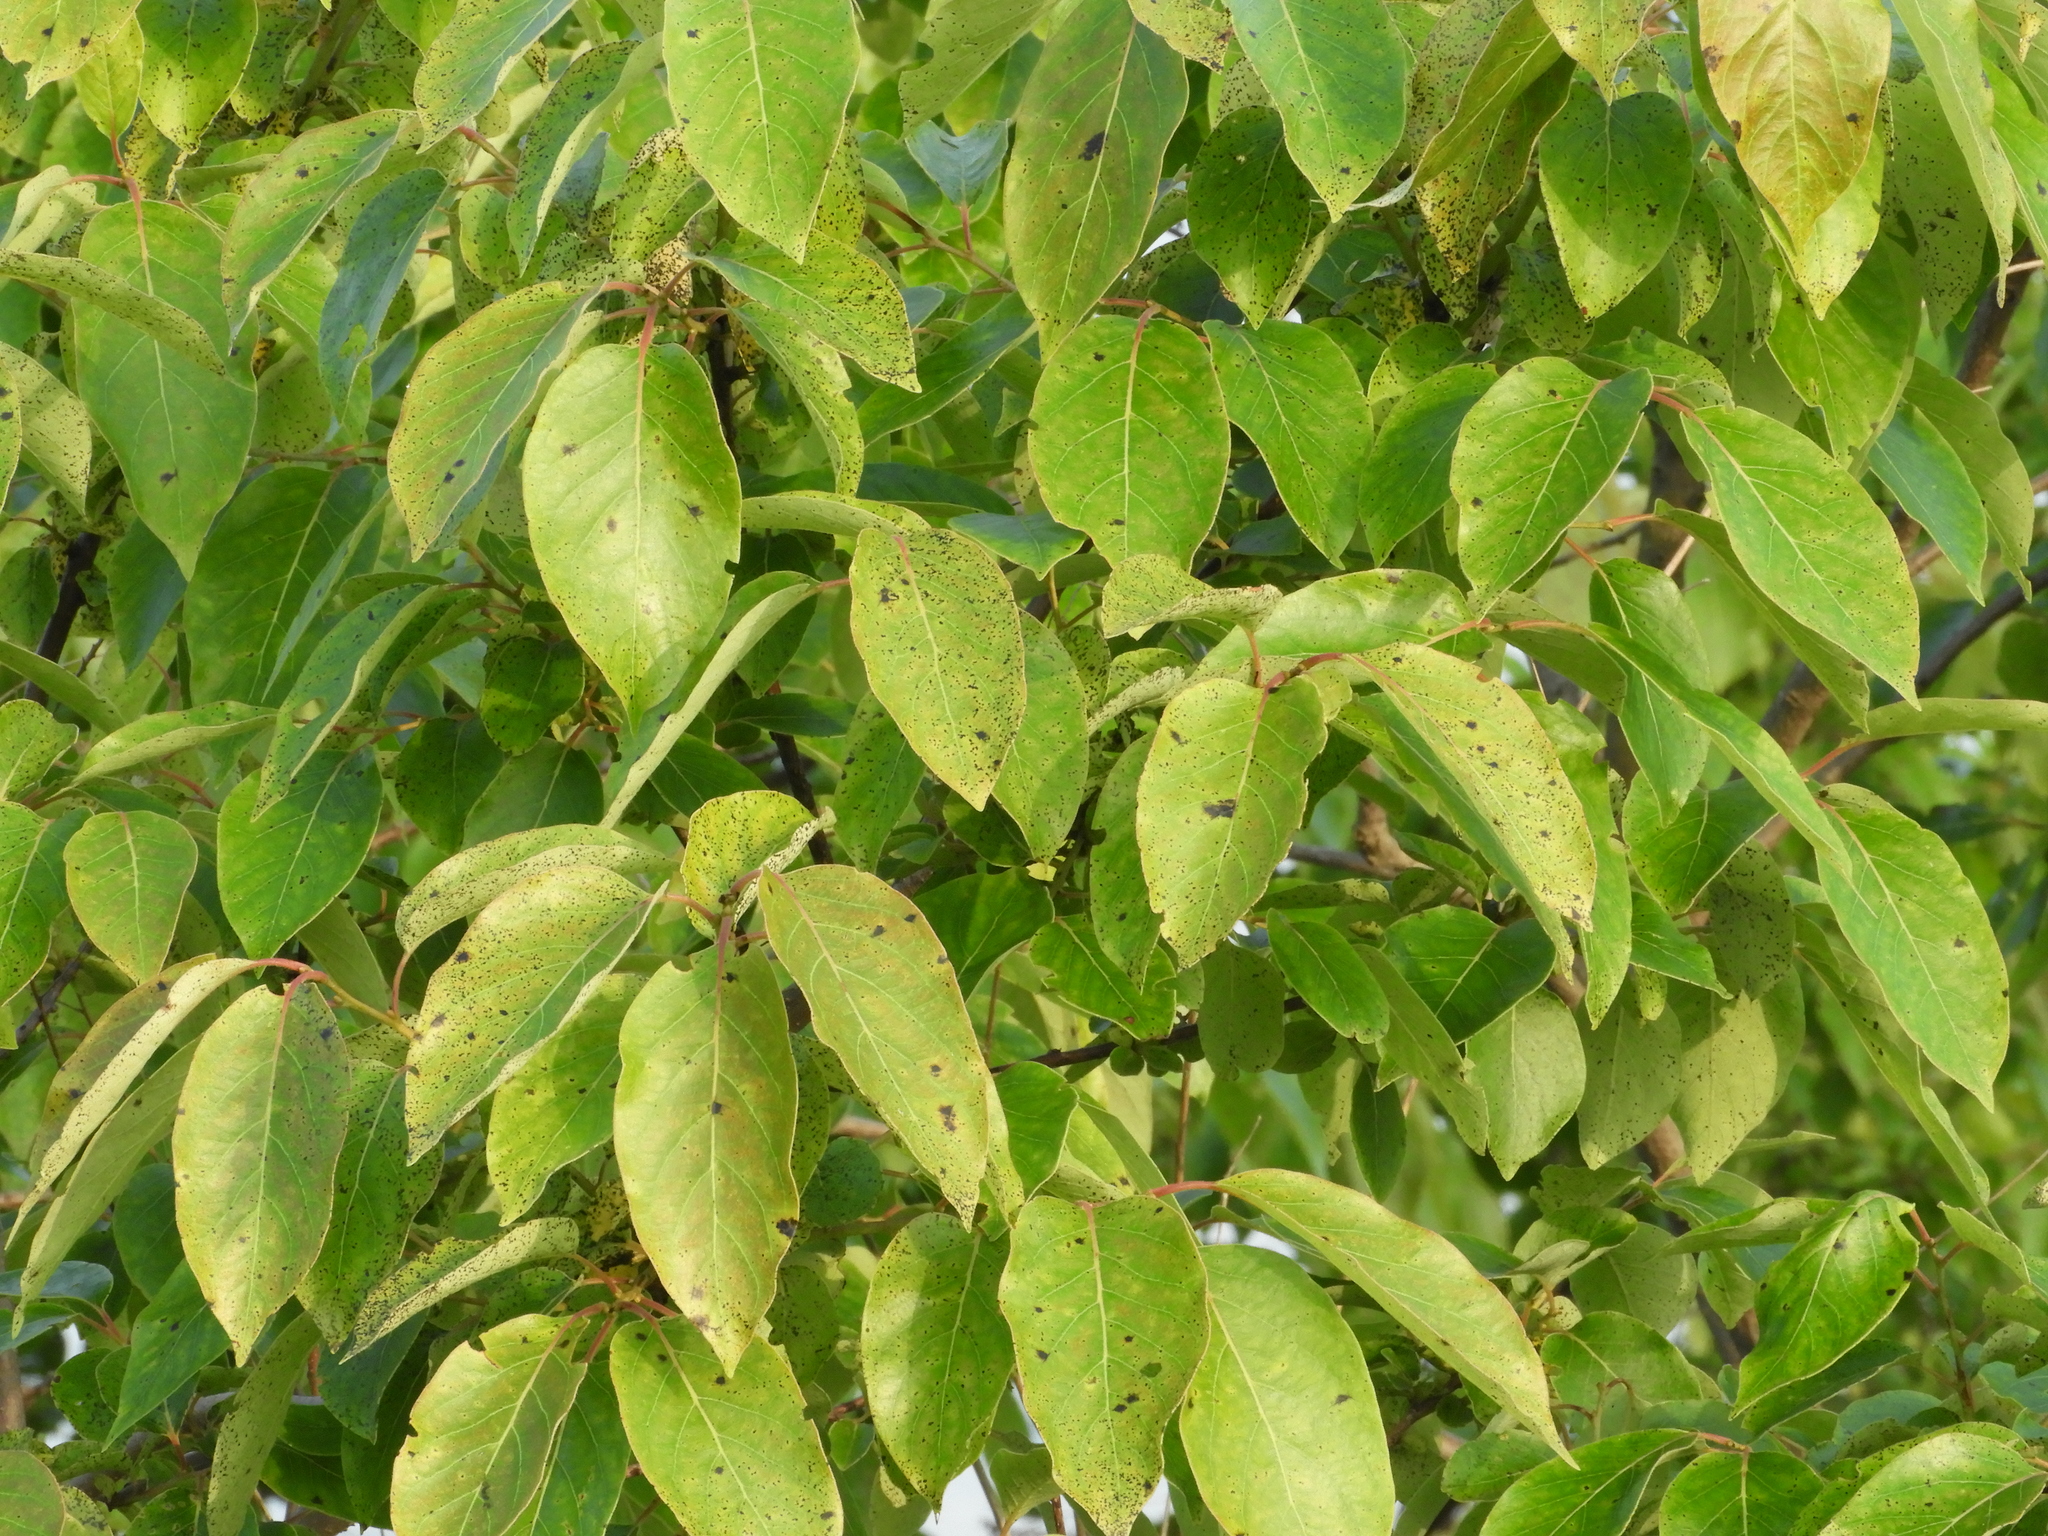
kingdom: Plantae
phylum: Tracheophyta
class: Magnoliopsida
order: Ericales
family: Ebenaceae
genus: Diospyros
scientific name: Diospyros virginiana
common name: Persimmon
